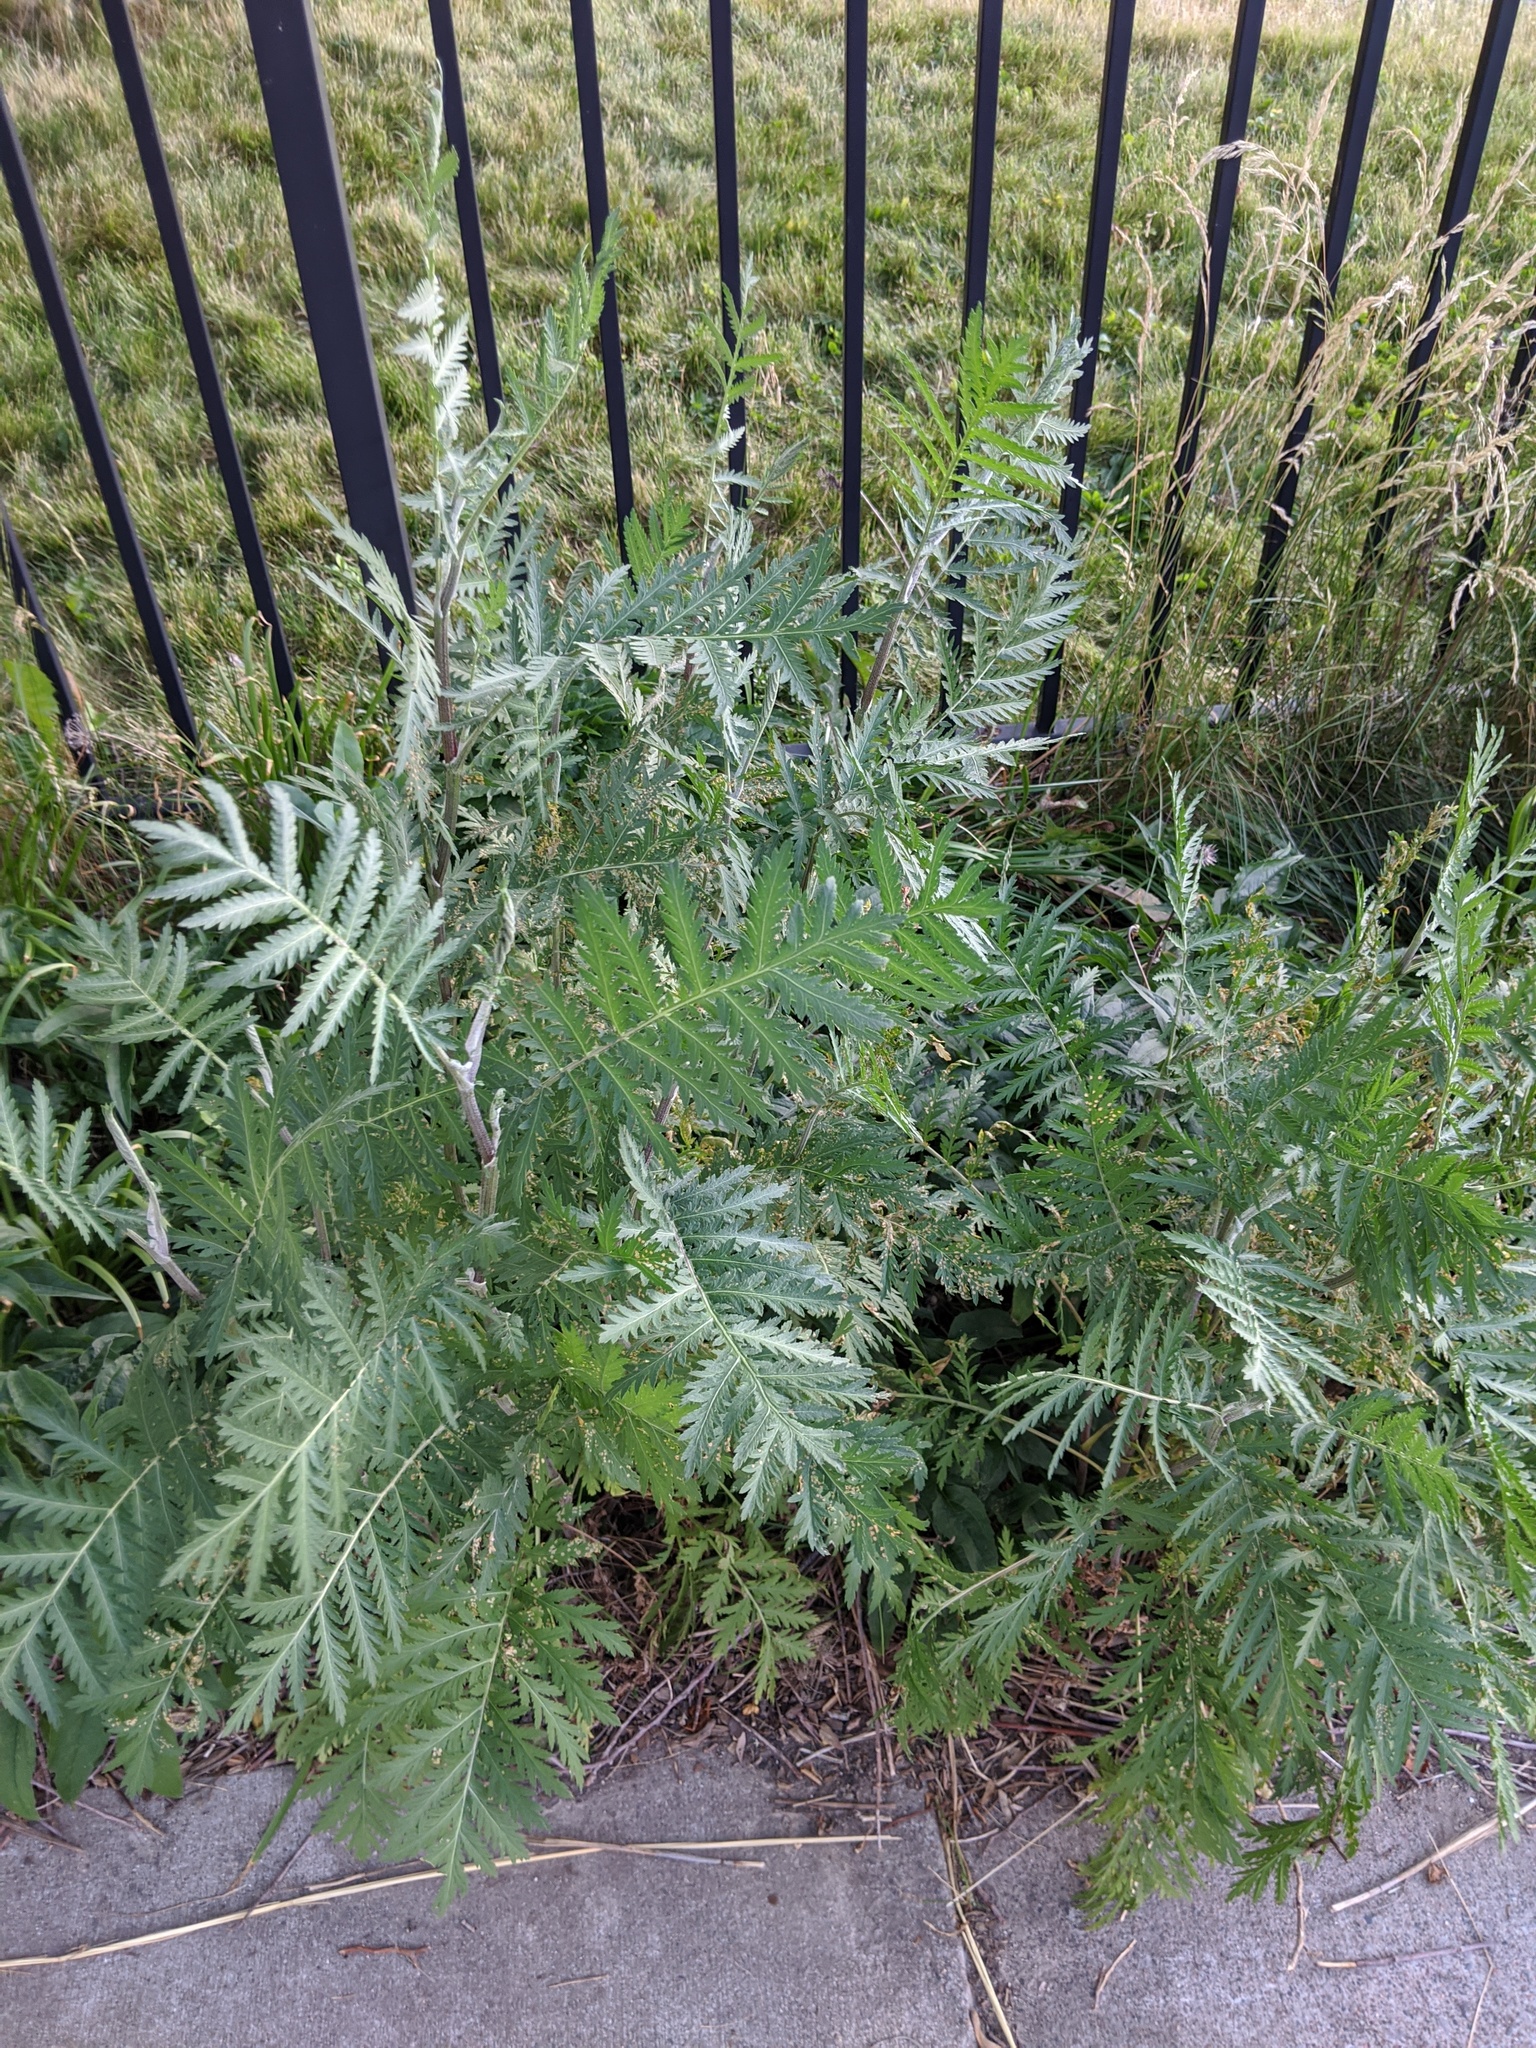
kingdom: Plantae
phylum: Tracheophyta
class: Magnoliopsida
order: Asterales
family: Asteraceae
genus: Tanacetum
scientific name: Tanacetum vulgare
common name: Common tansy
